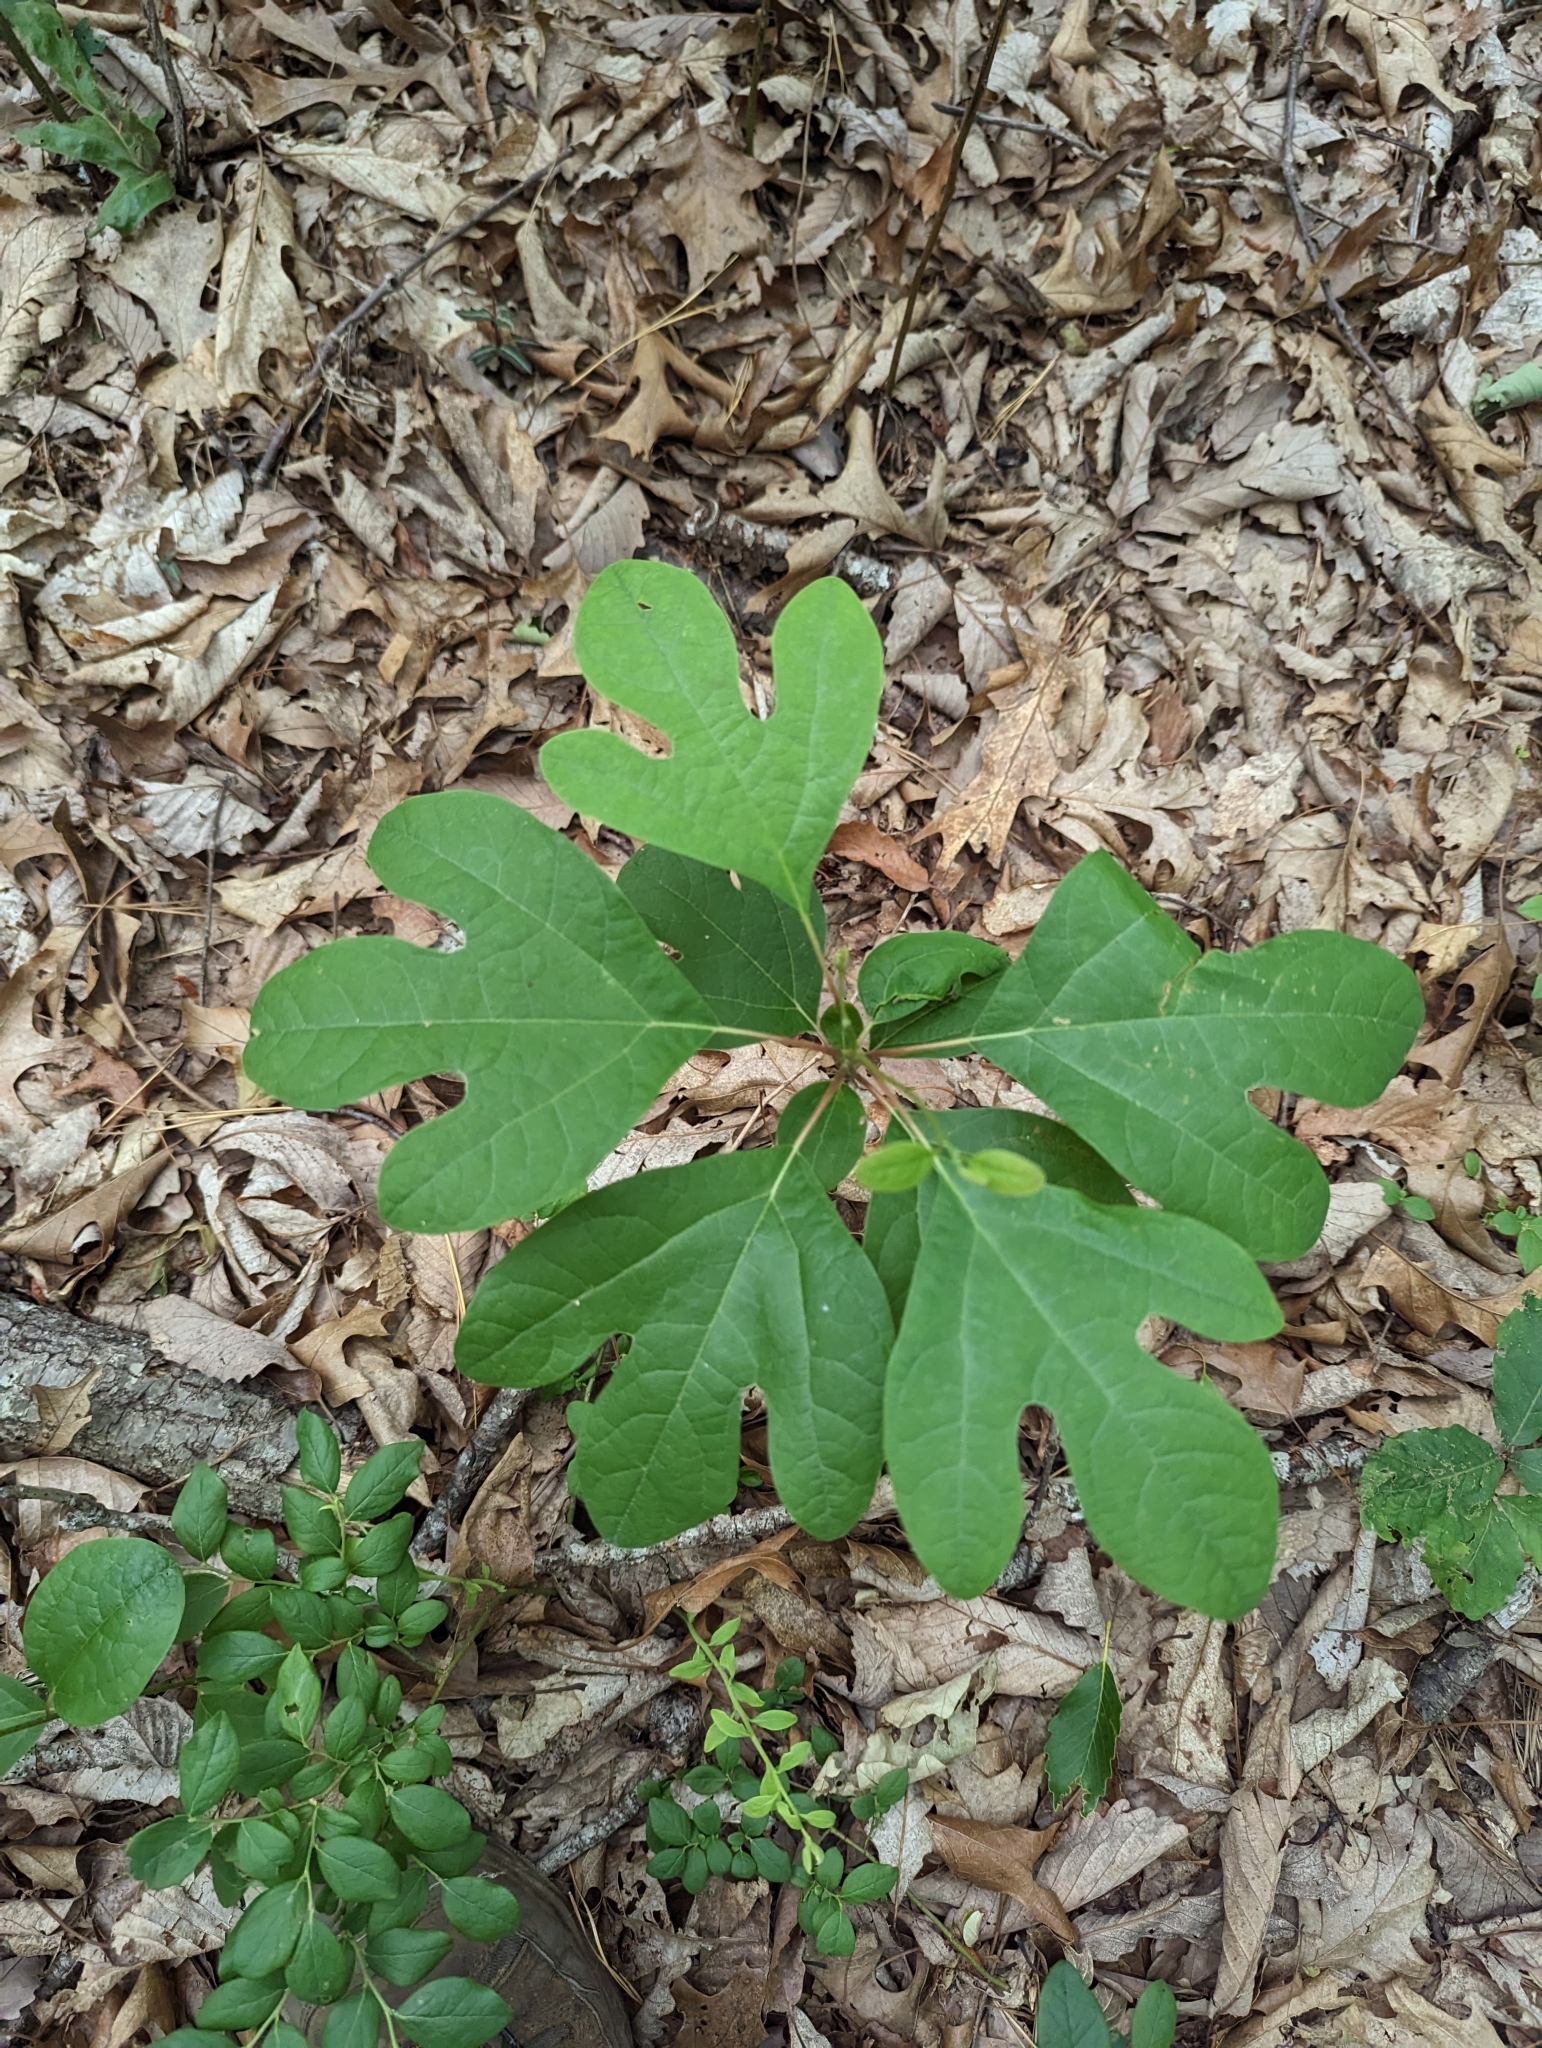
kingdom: Plantae
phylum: Tracheophyta
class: Magnoliopsida
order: Laurales
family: Lauraceae
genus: Sassafras
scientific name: Sassafras albidum
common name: Sassafras
